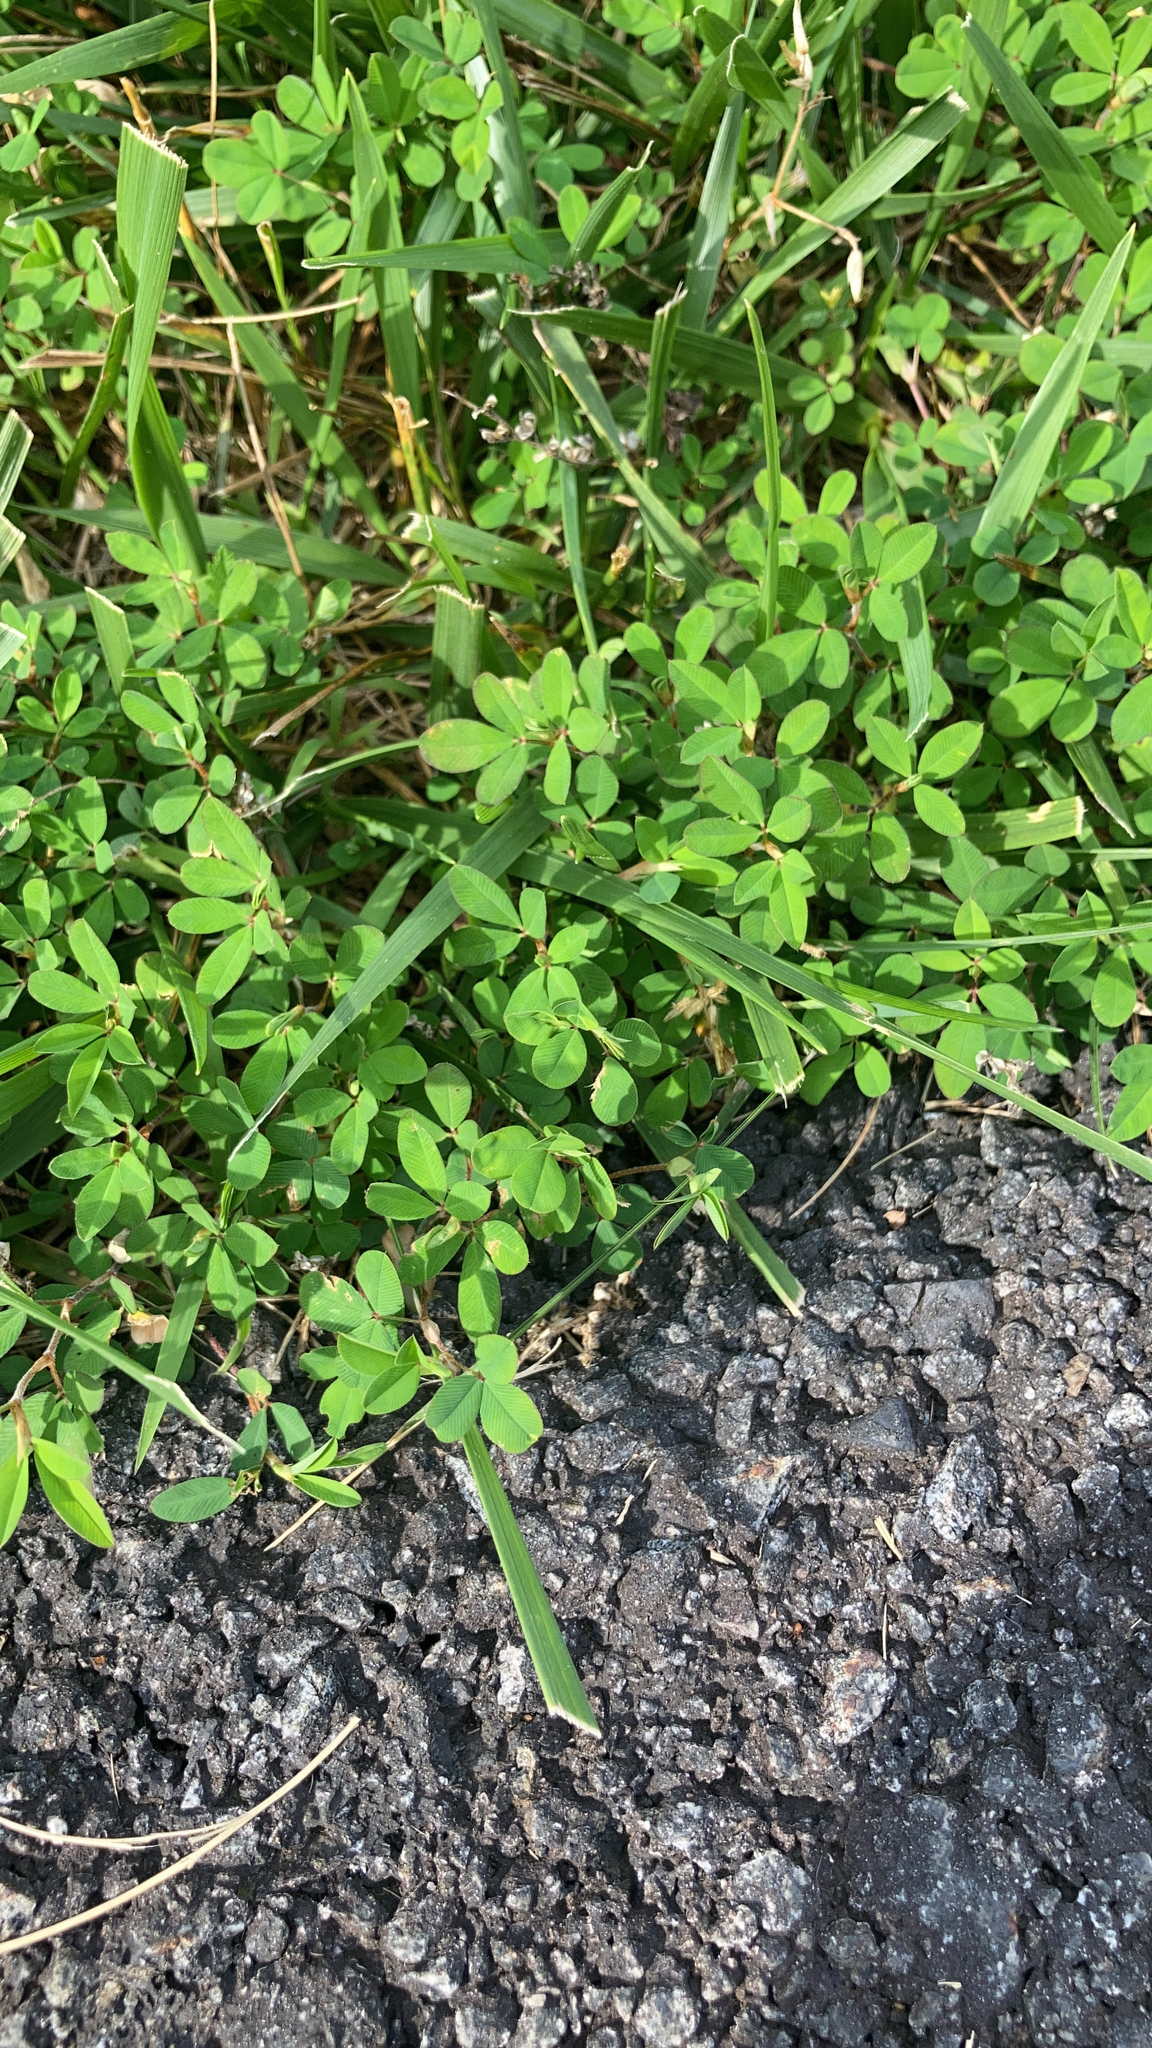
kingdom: Plantae
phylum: Tracheophyta
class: Magnoliopsida
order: Fabales
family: Fabaceae
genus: Kummerowia
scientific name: Kummerowia striata
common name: Japanese clover
